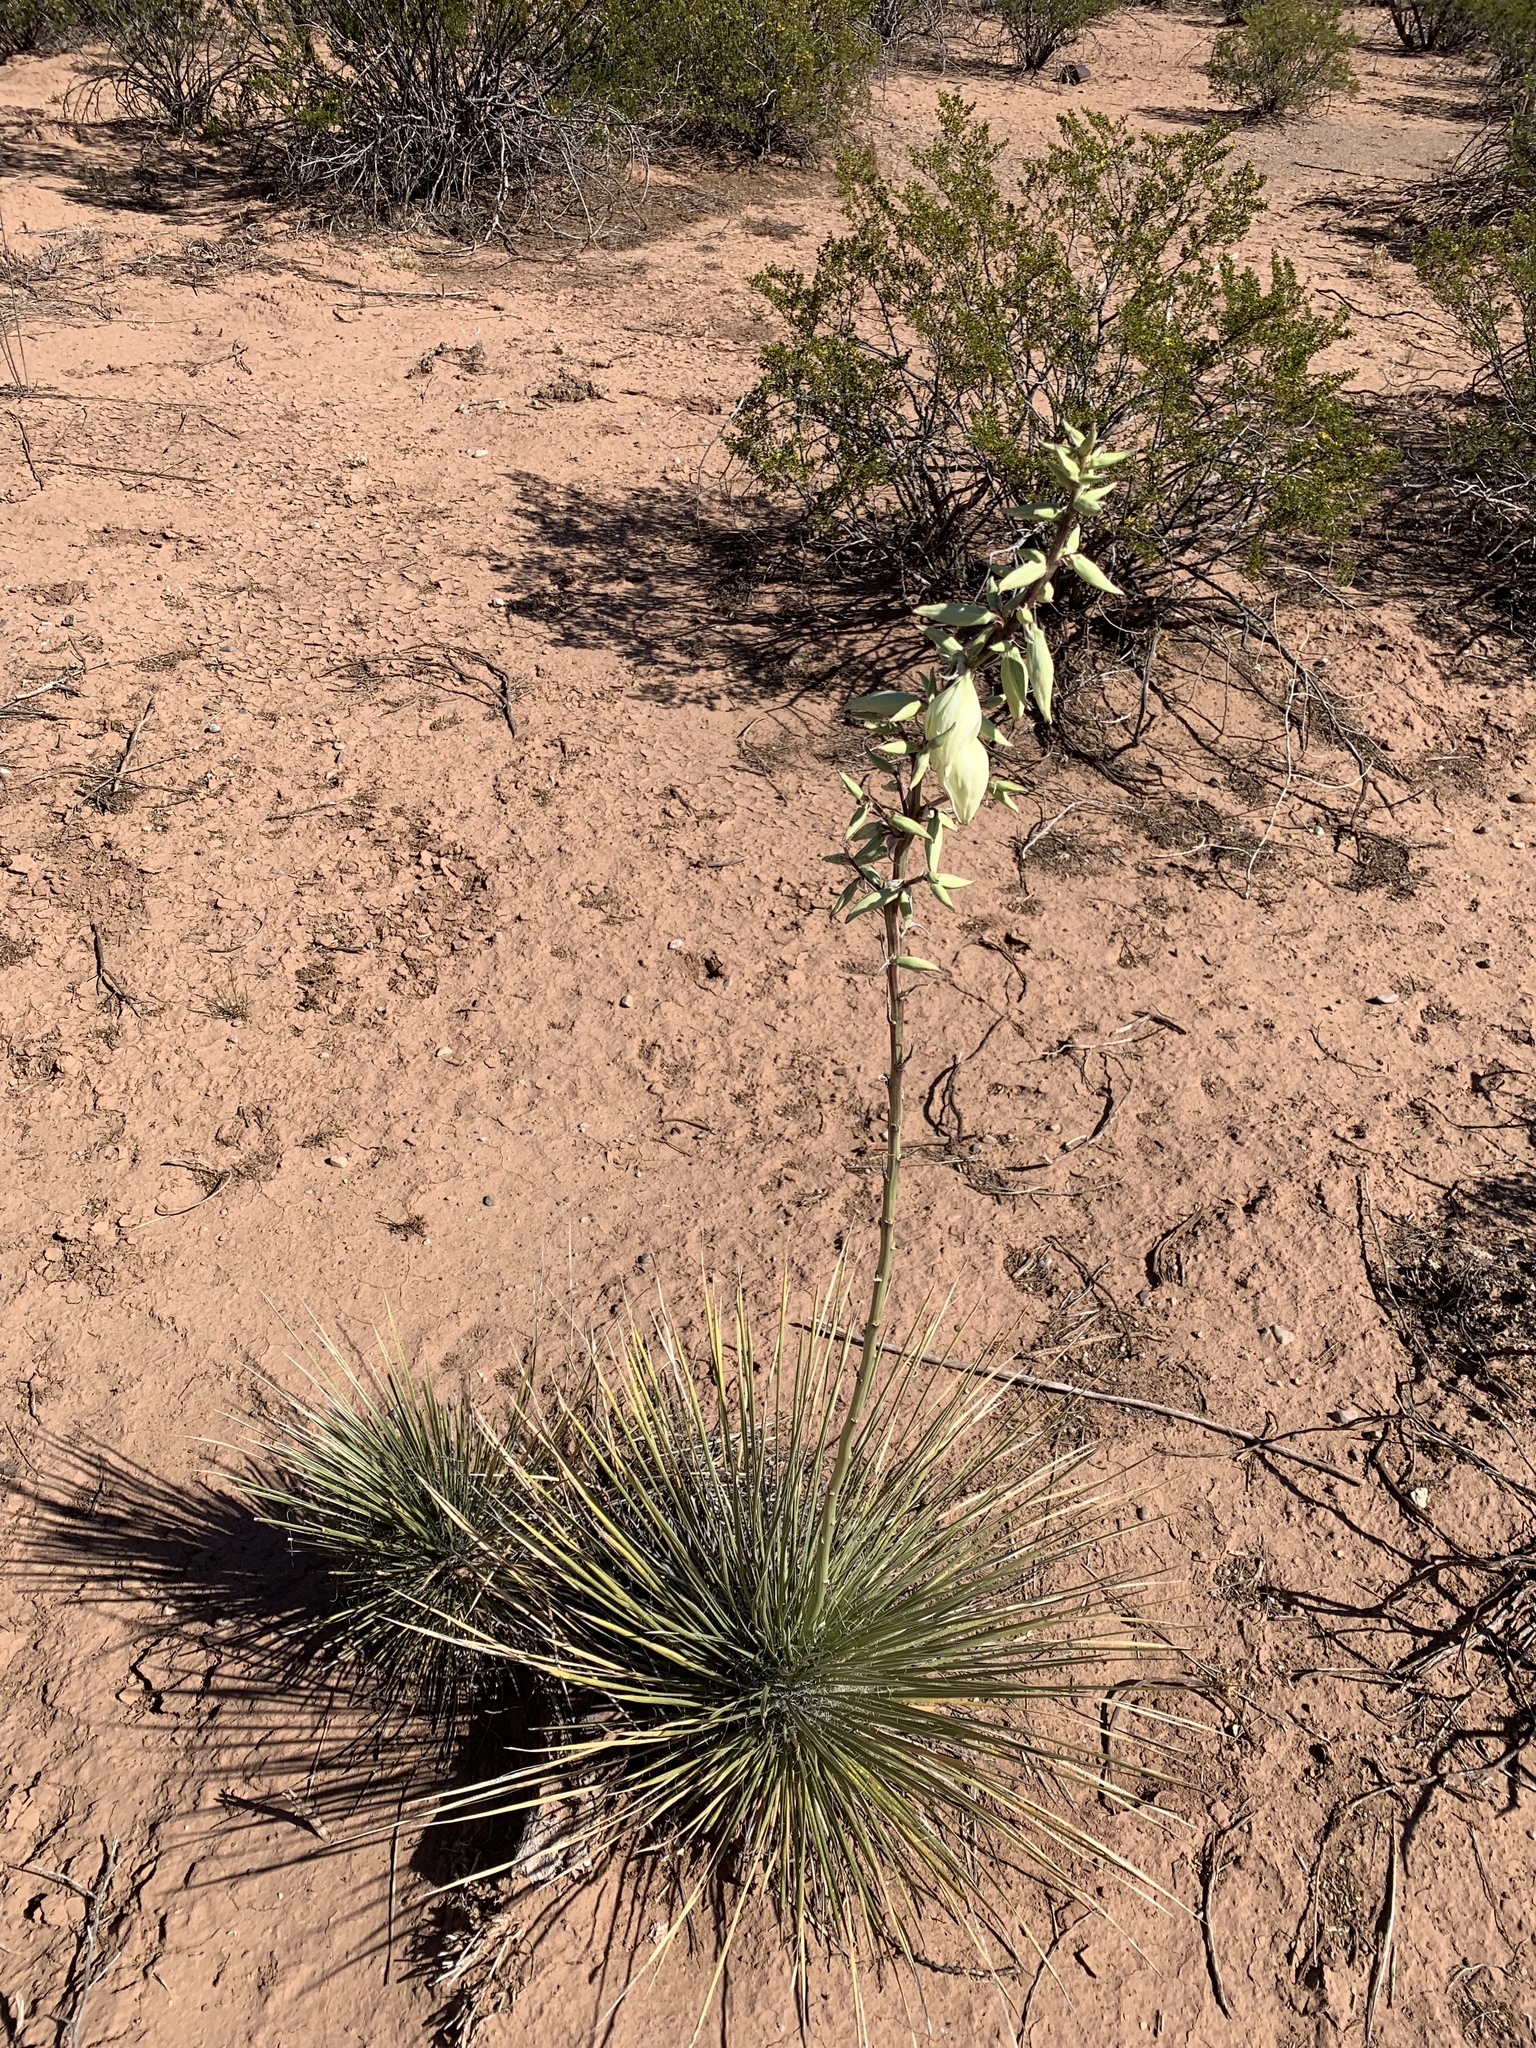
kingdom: Plantae
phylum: Tracheophyta
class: Liliopsida
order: Asparagales
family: Asparagaceae
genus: Yucca
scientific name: Yucca elata
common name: Palmella
